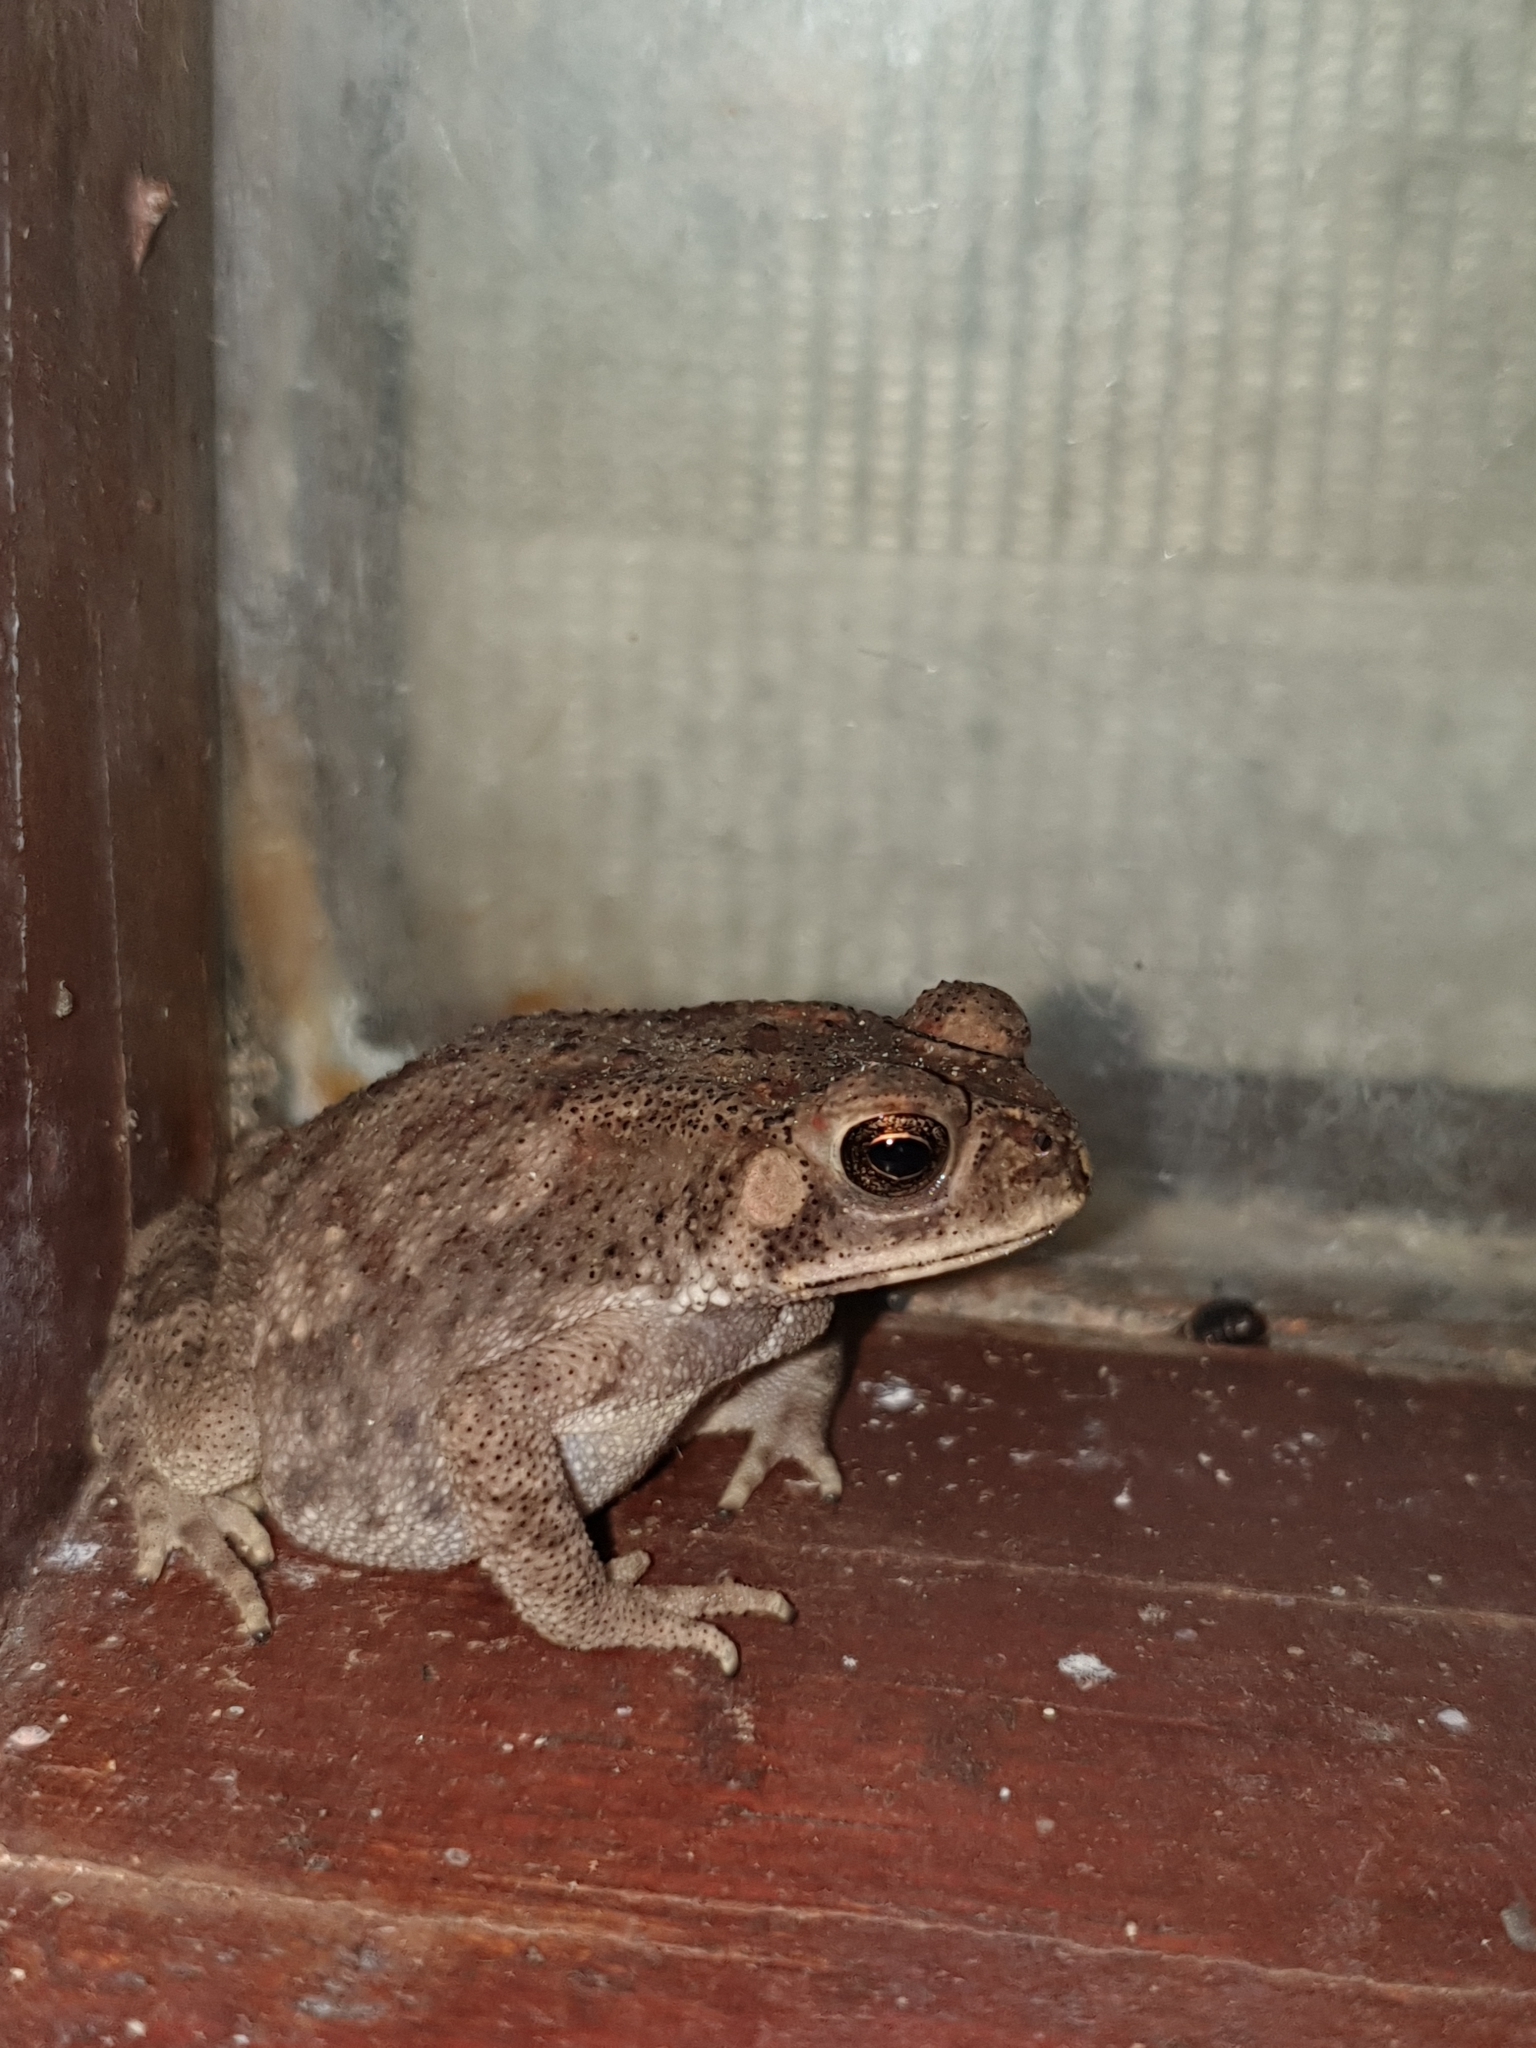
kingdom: Animalia
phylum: Chordata
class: Amphibia
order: Anura
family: Bufonidae
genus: Duttaphrynus
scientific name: Duttaphrynus melanostictus
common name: Common sunda toad
